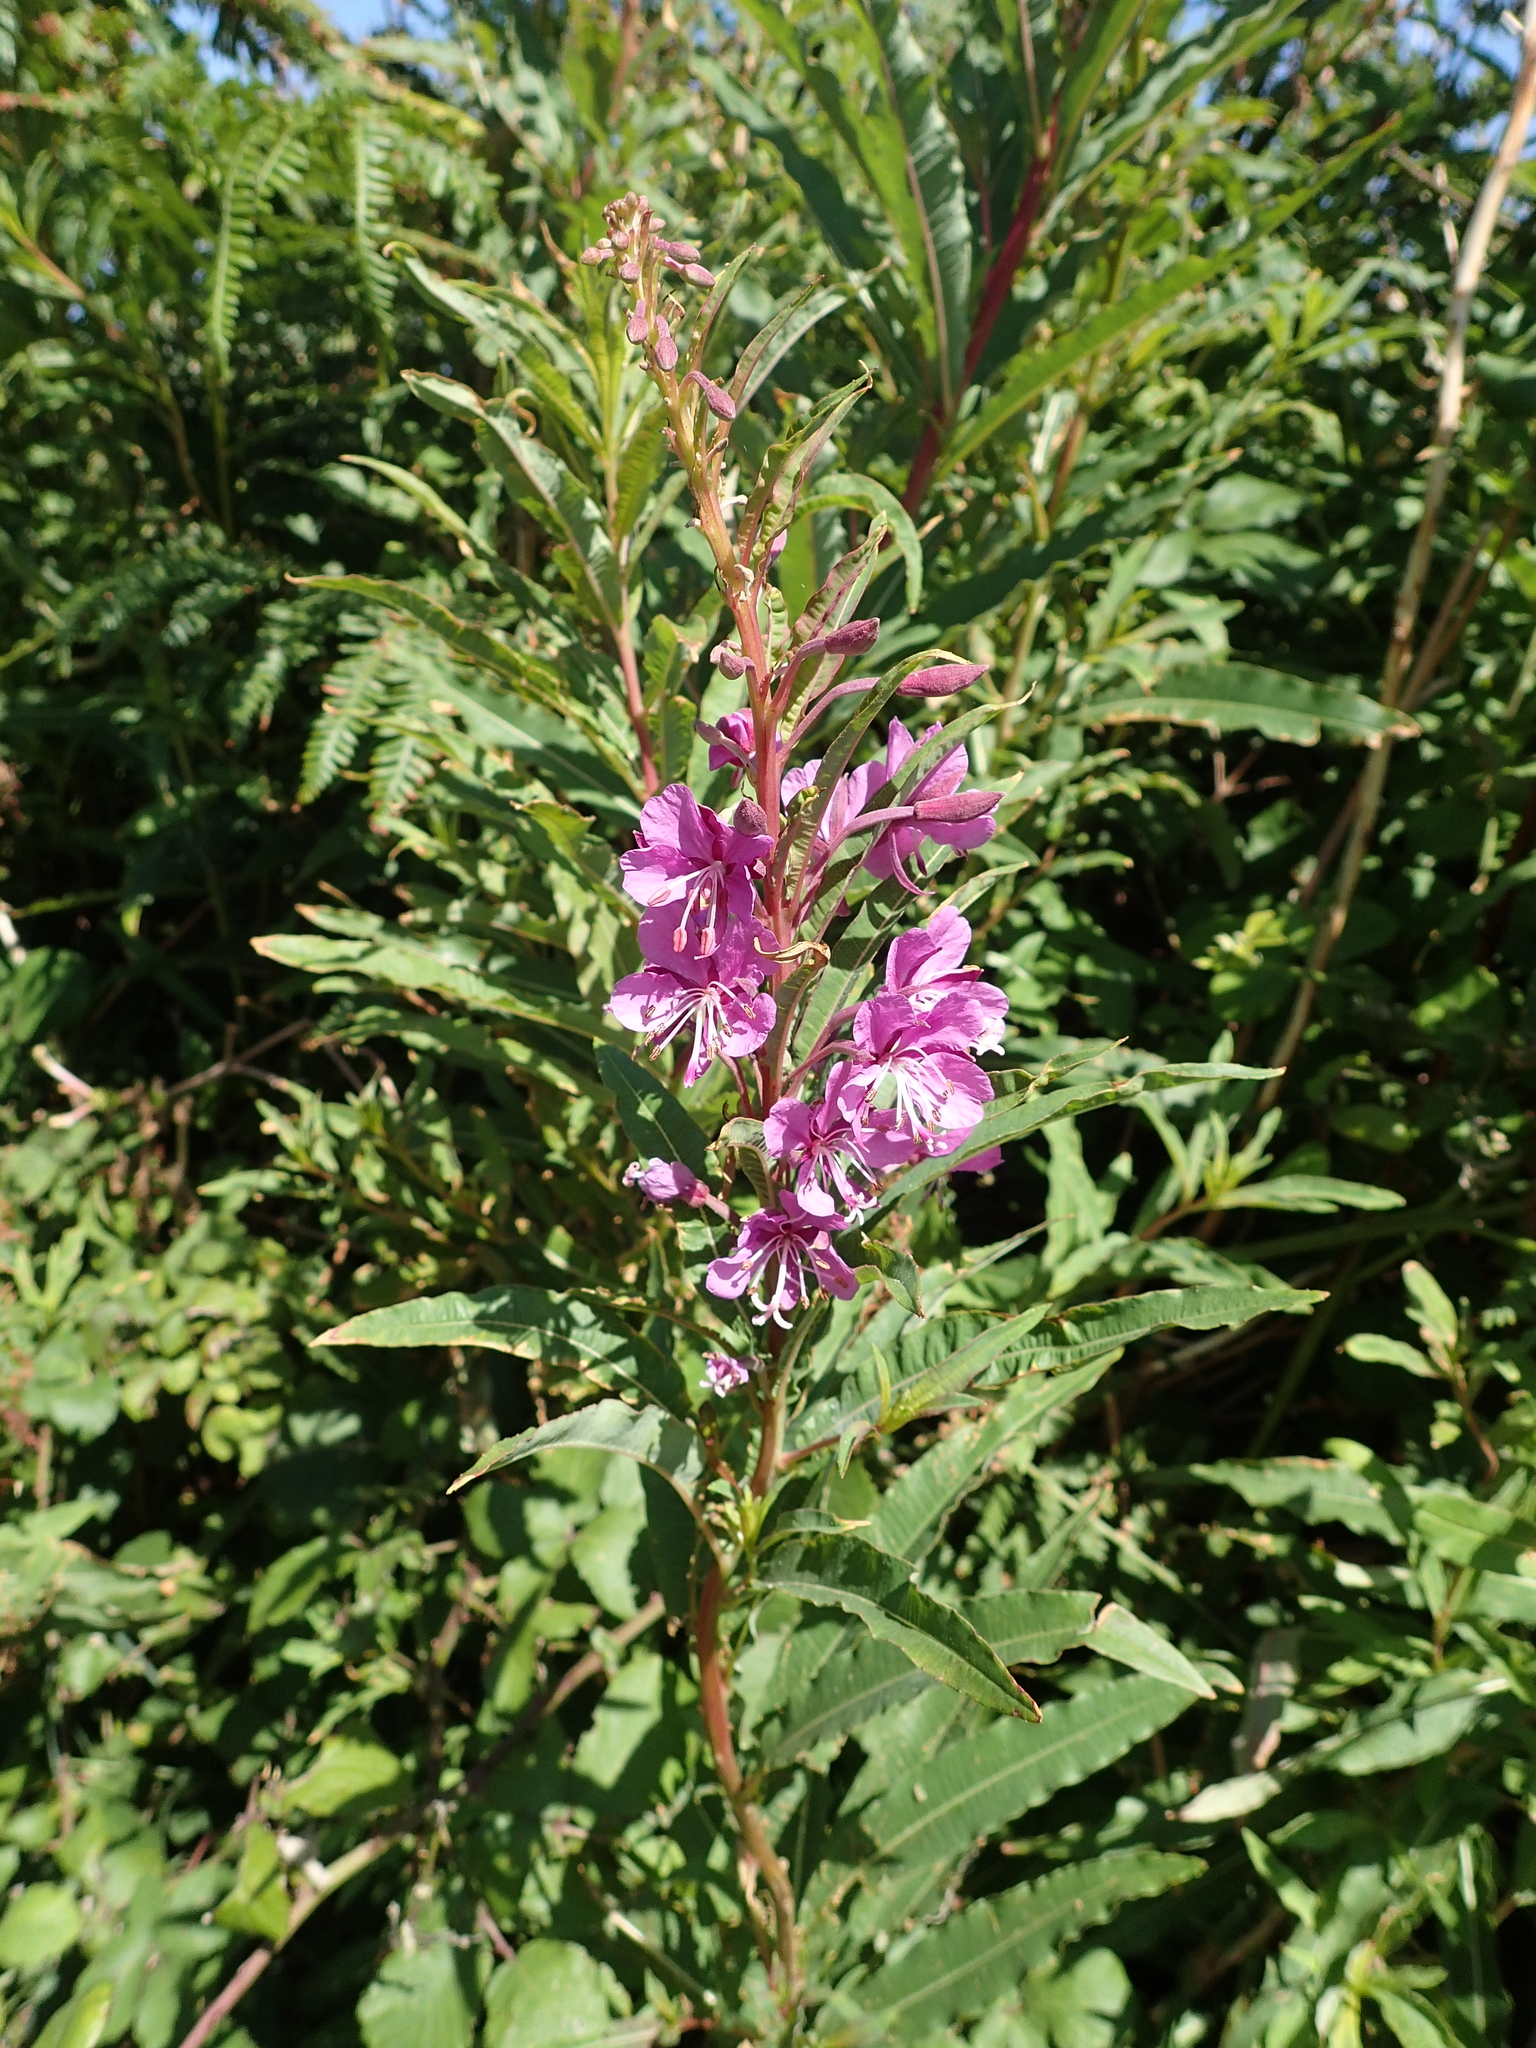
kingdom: Plantae
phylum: Tracheophyta
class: Magnoliopsida
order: Myrtales
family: Onagraceae
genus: Chamaenerion
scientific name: Chamaenerion angustifolium
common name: Fireweed
